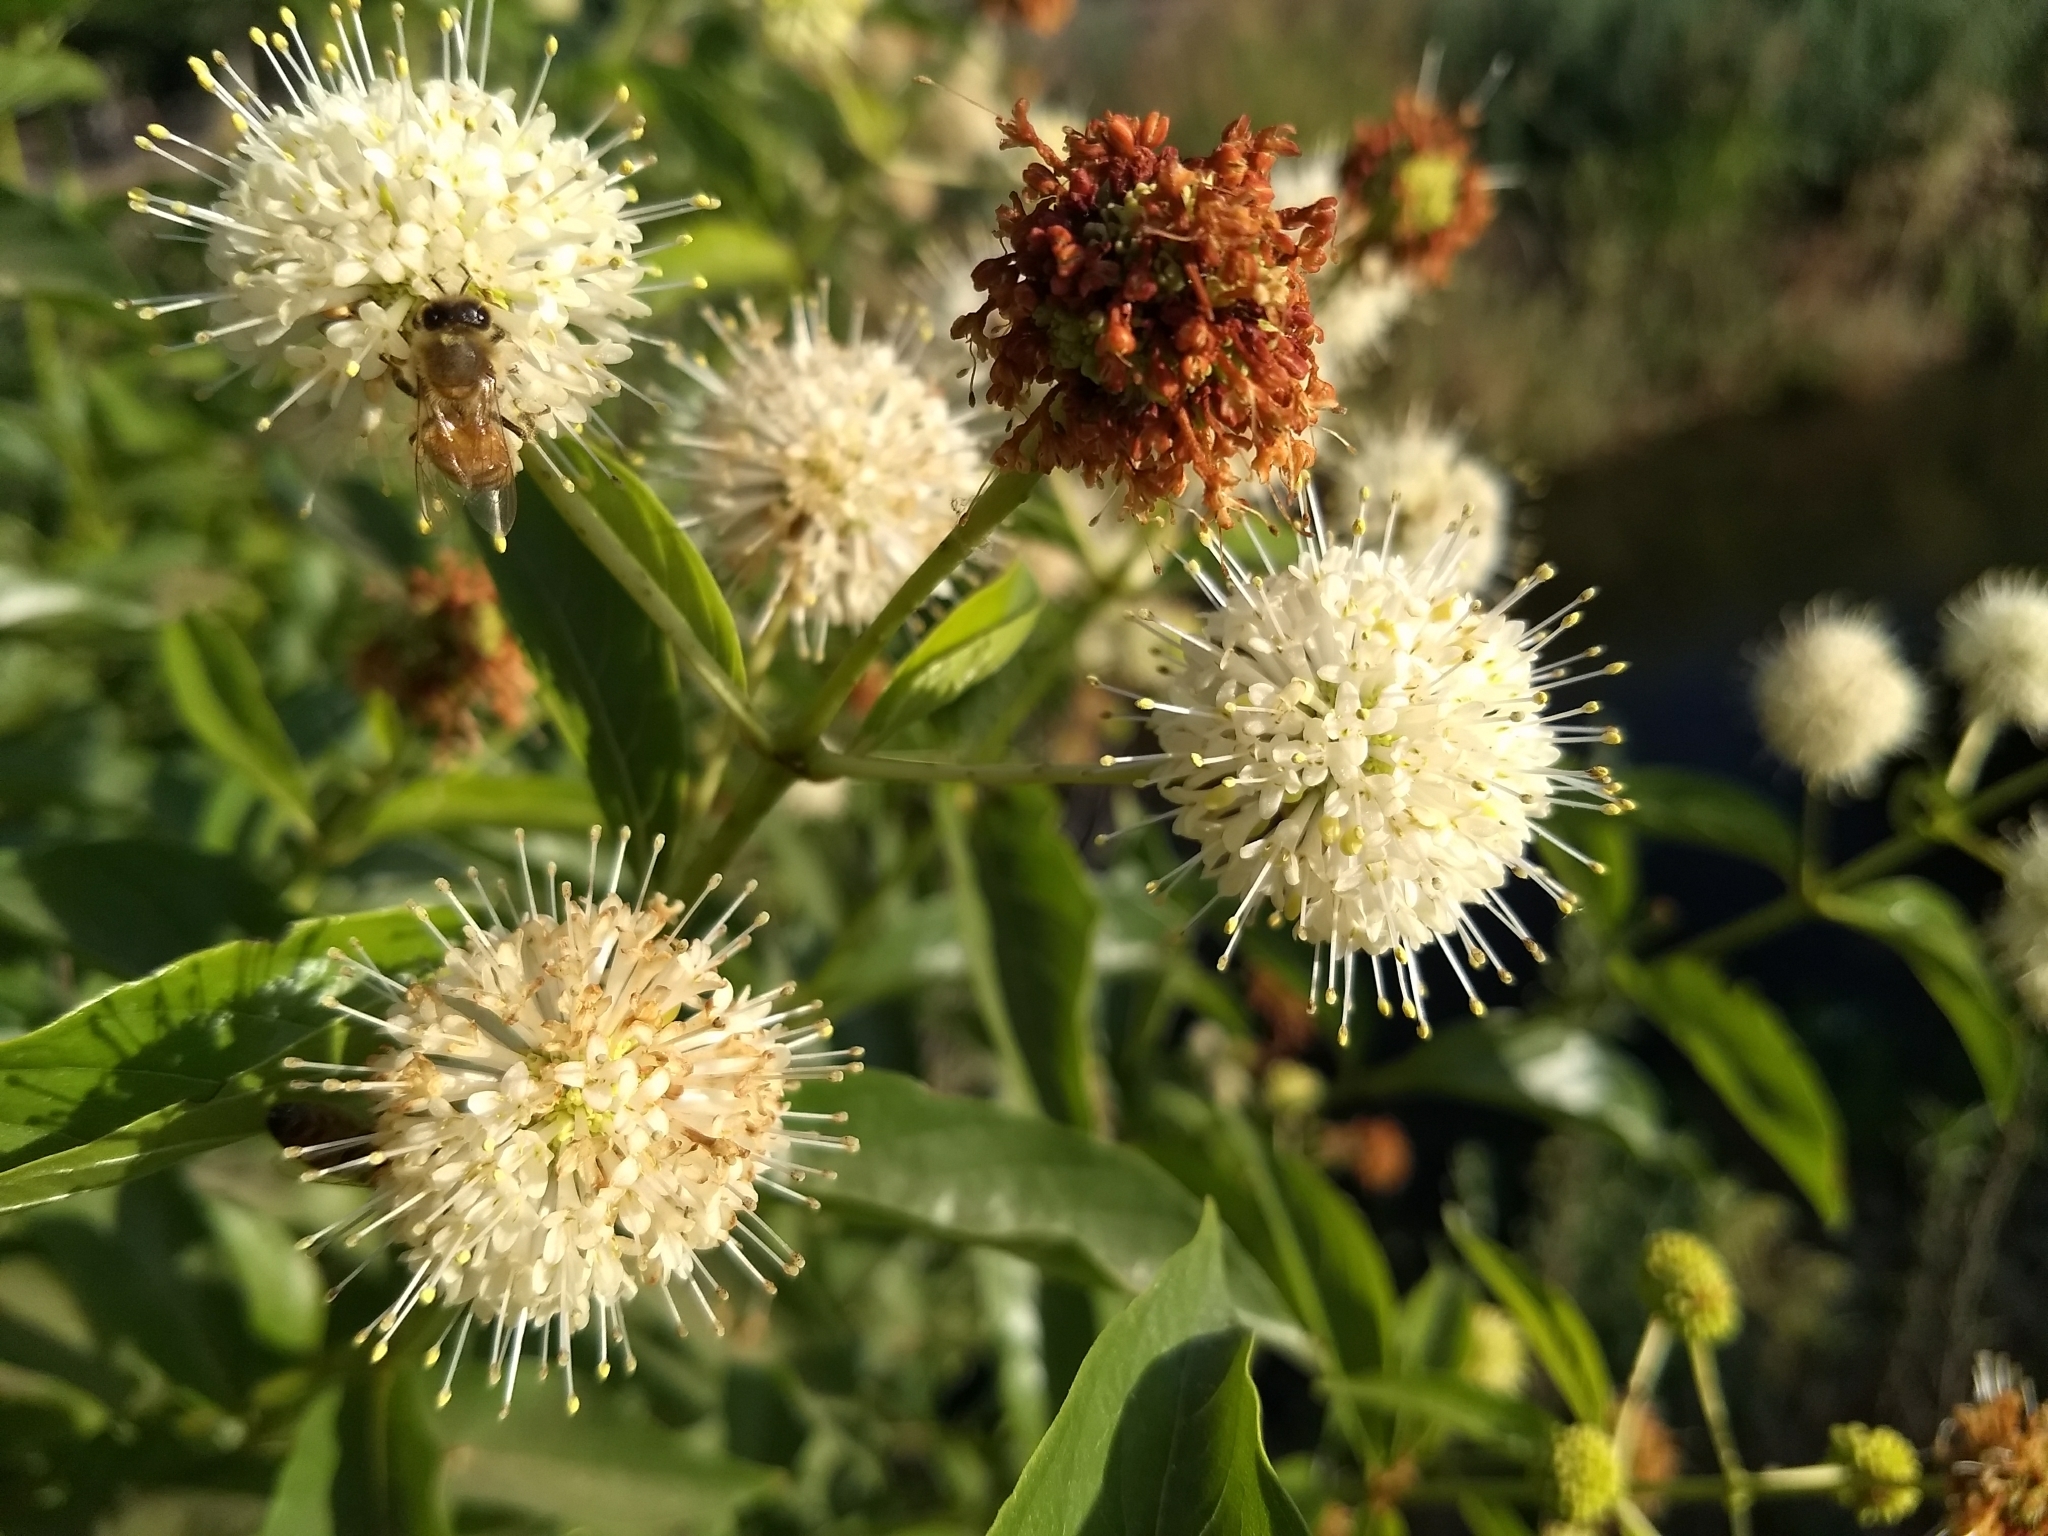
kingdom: Plantae
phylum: Tracheophyta
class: Magnoliopsida
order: Gentianales
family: Rubiaceae
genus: Cephalanthus
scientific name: Cephalanthus occidentalis
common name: Button-willow
